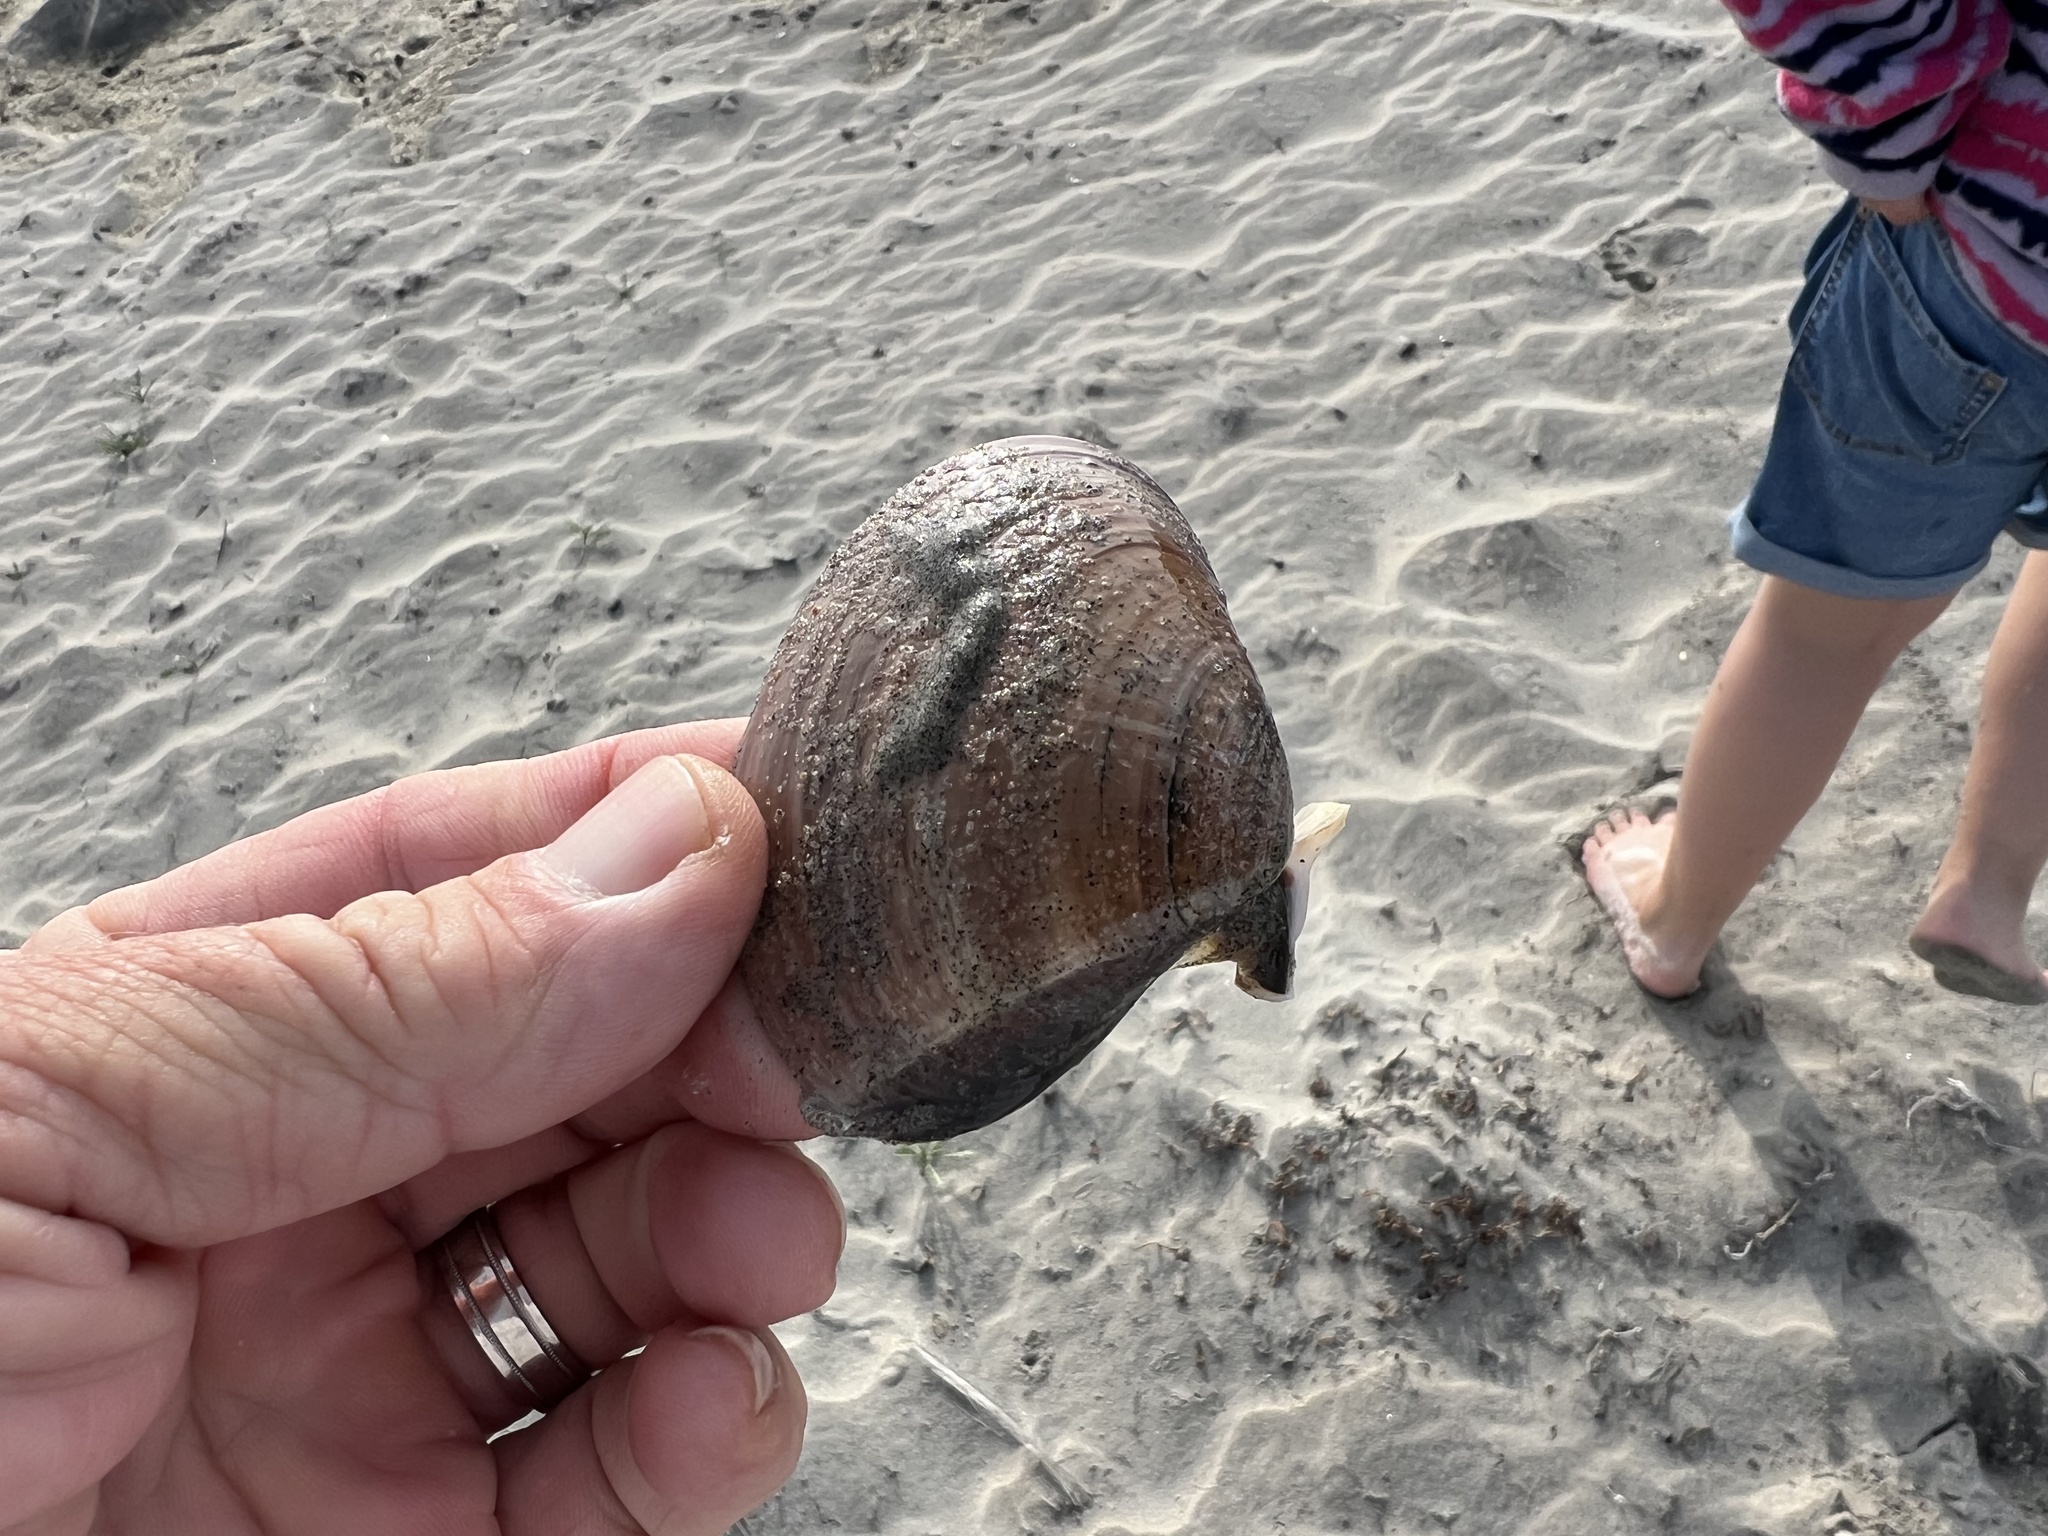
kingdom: Animalia
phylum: Mollusca
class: Bivalvia
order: Venerida
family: Veneridae
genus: Tivela
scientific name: Tivela stultorum
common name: Pismo clam
